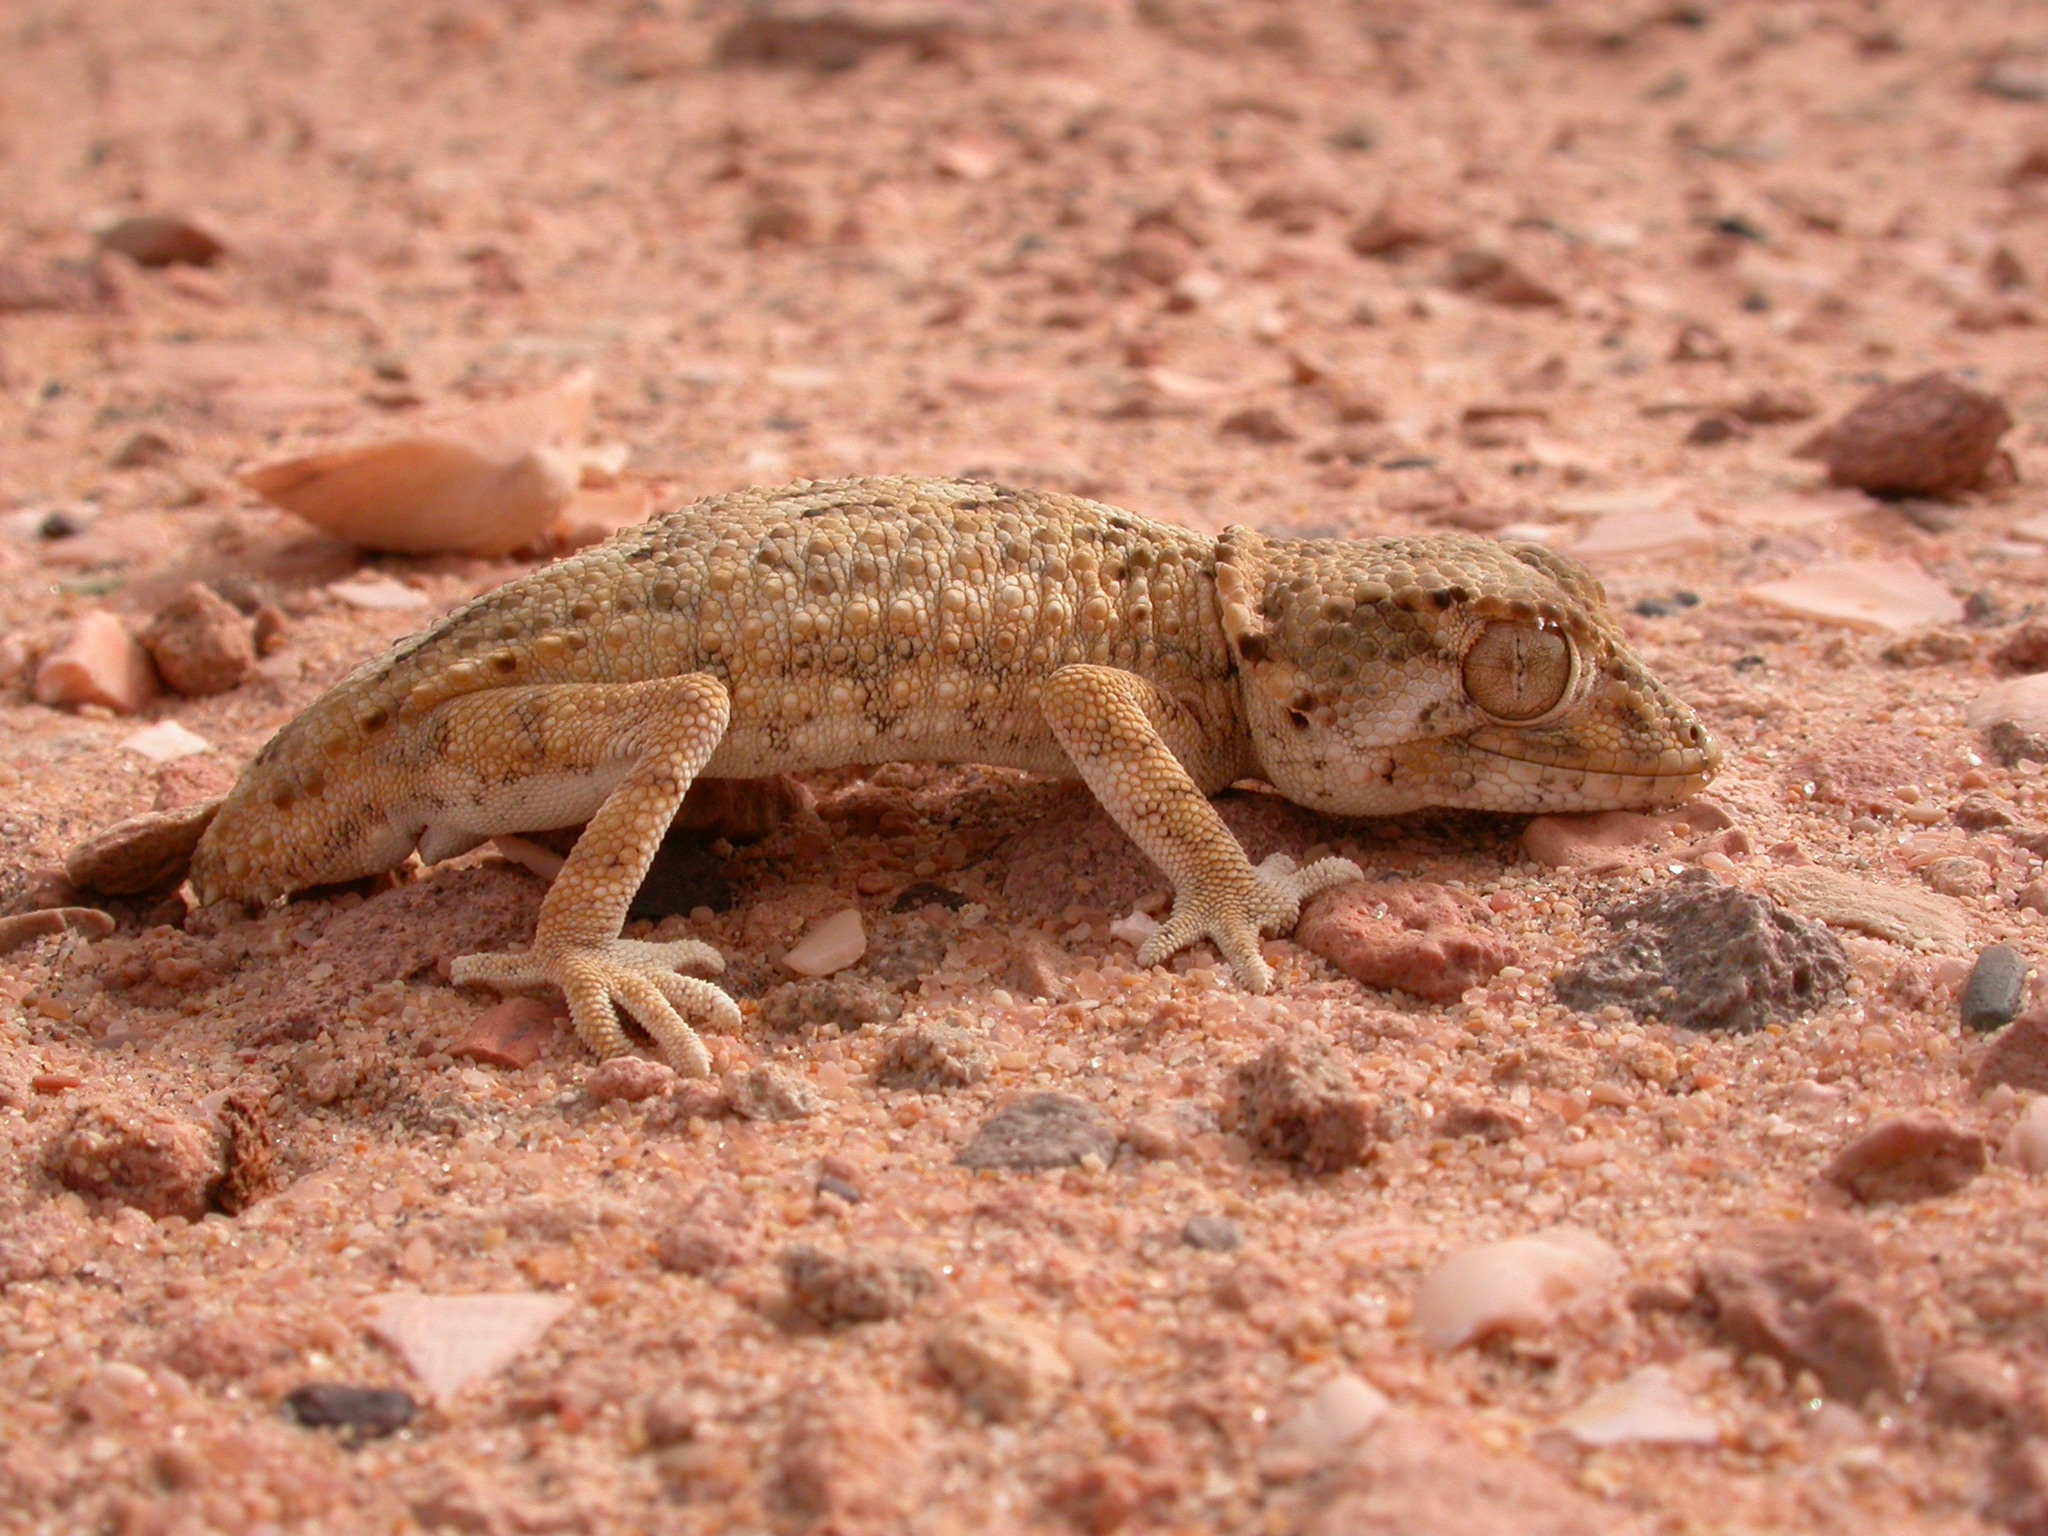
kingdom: Animalia
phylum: Chordata
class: Squamata
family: Phyllodactylidae
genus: Tarentola
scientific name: Tarentola chazaliae
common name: Helmethead gecko
